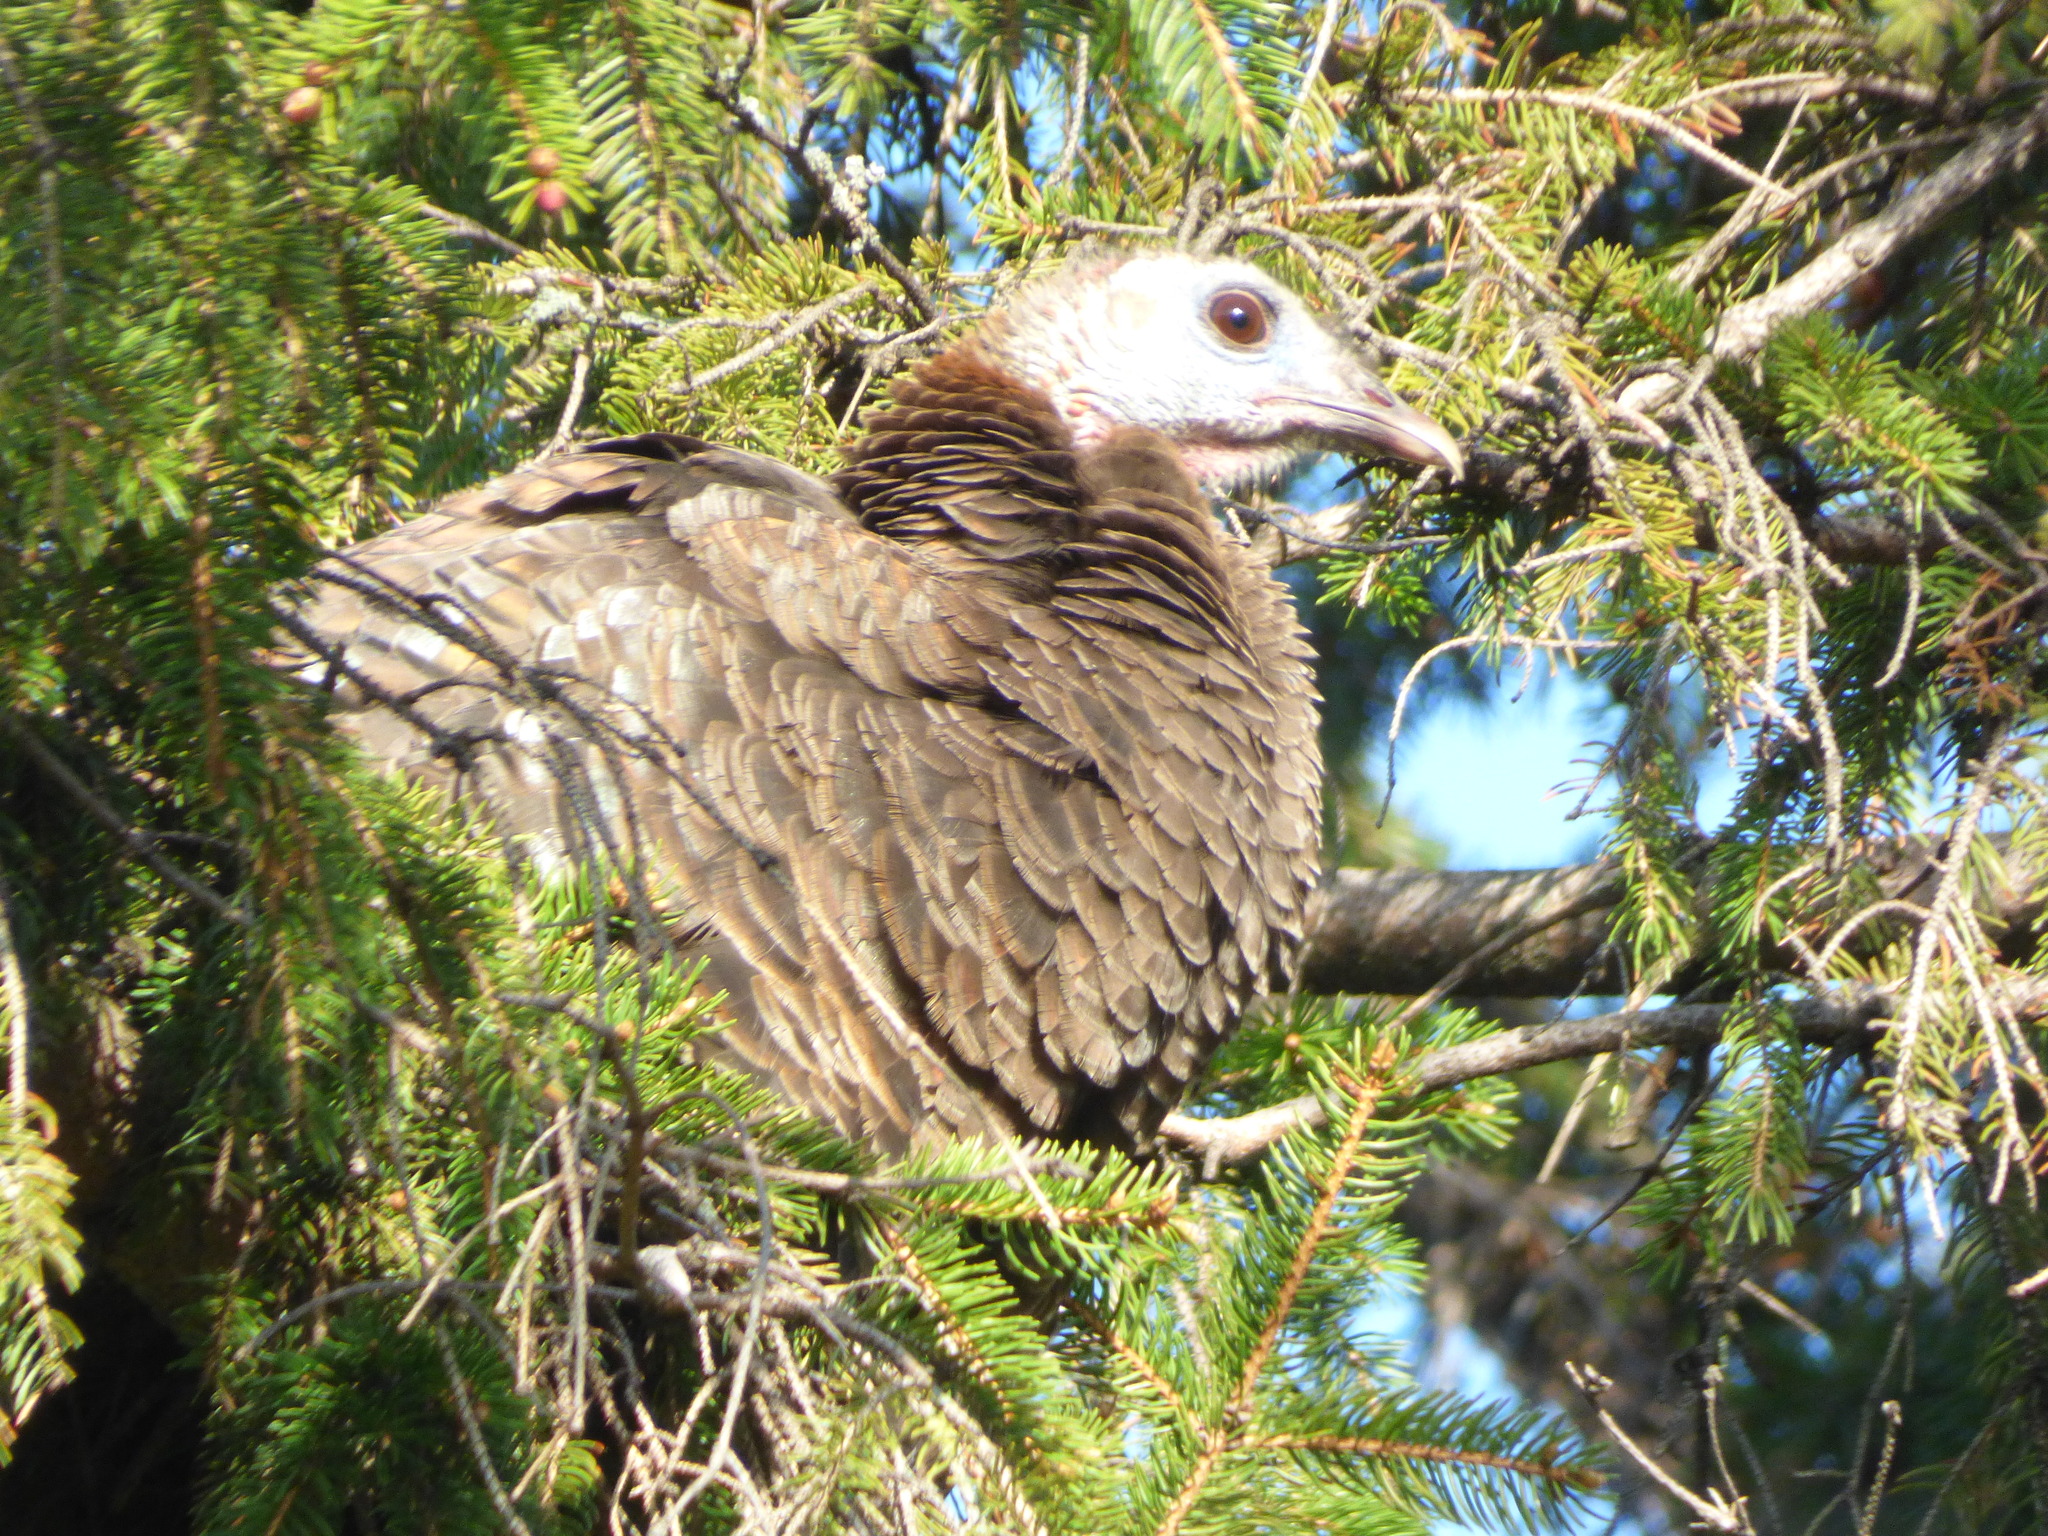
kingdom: Animalia
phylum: Chordata
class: Aves
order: Galliformes
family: Phasianidae
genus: Meleagris
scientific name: Meleagris gallopavo
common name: Wild turkey
